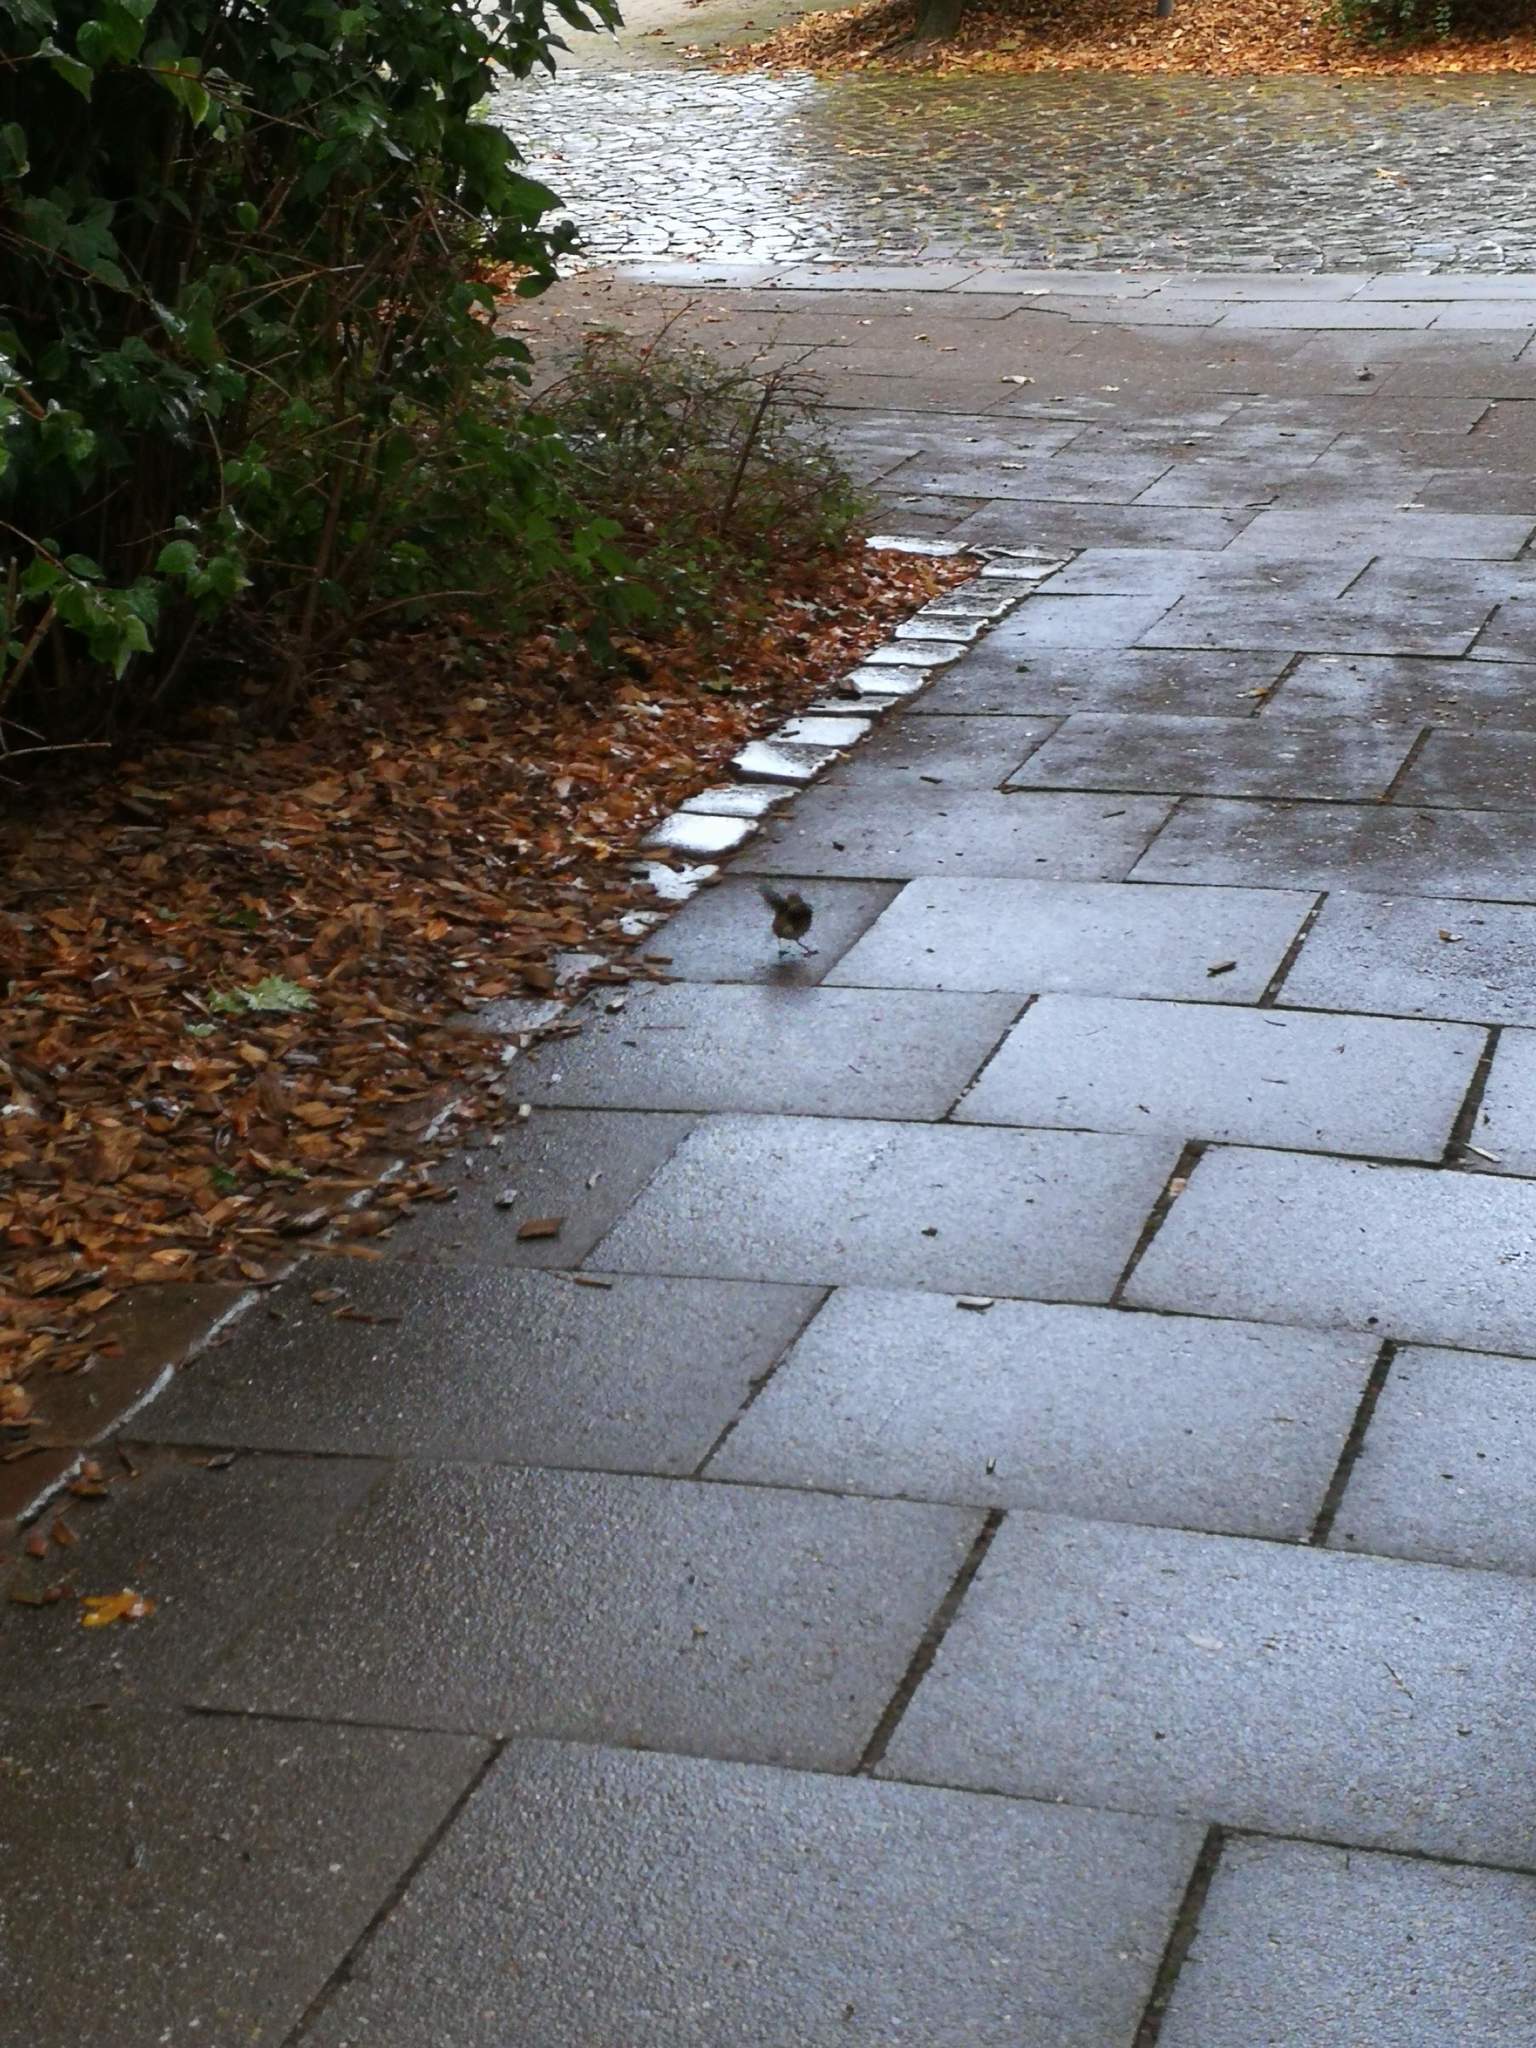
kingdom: Animalia
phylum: Chordata
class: Aves
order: Passeriformes
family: Muscicapidae
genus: Erithacus
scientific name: Erithacus rubecula
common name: European robin
